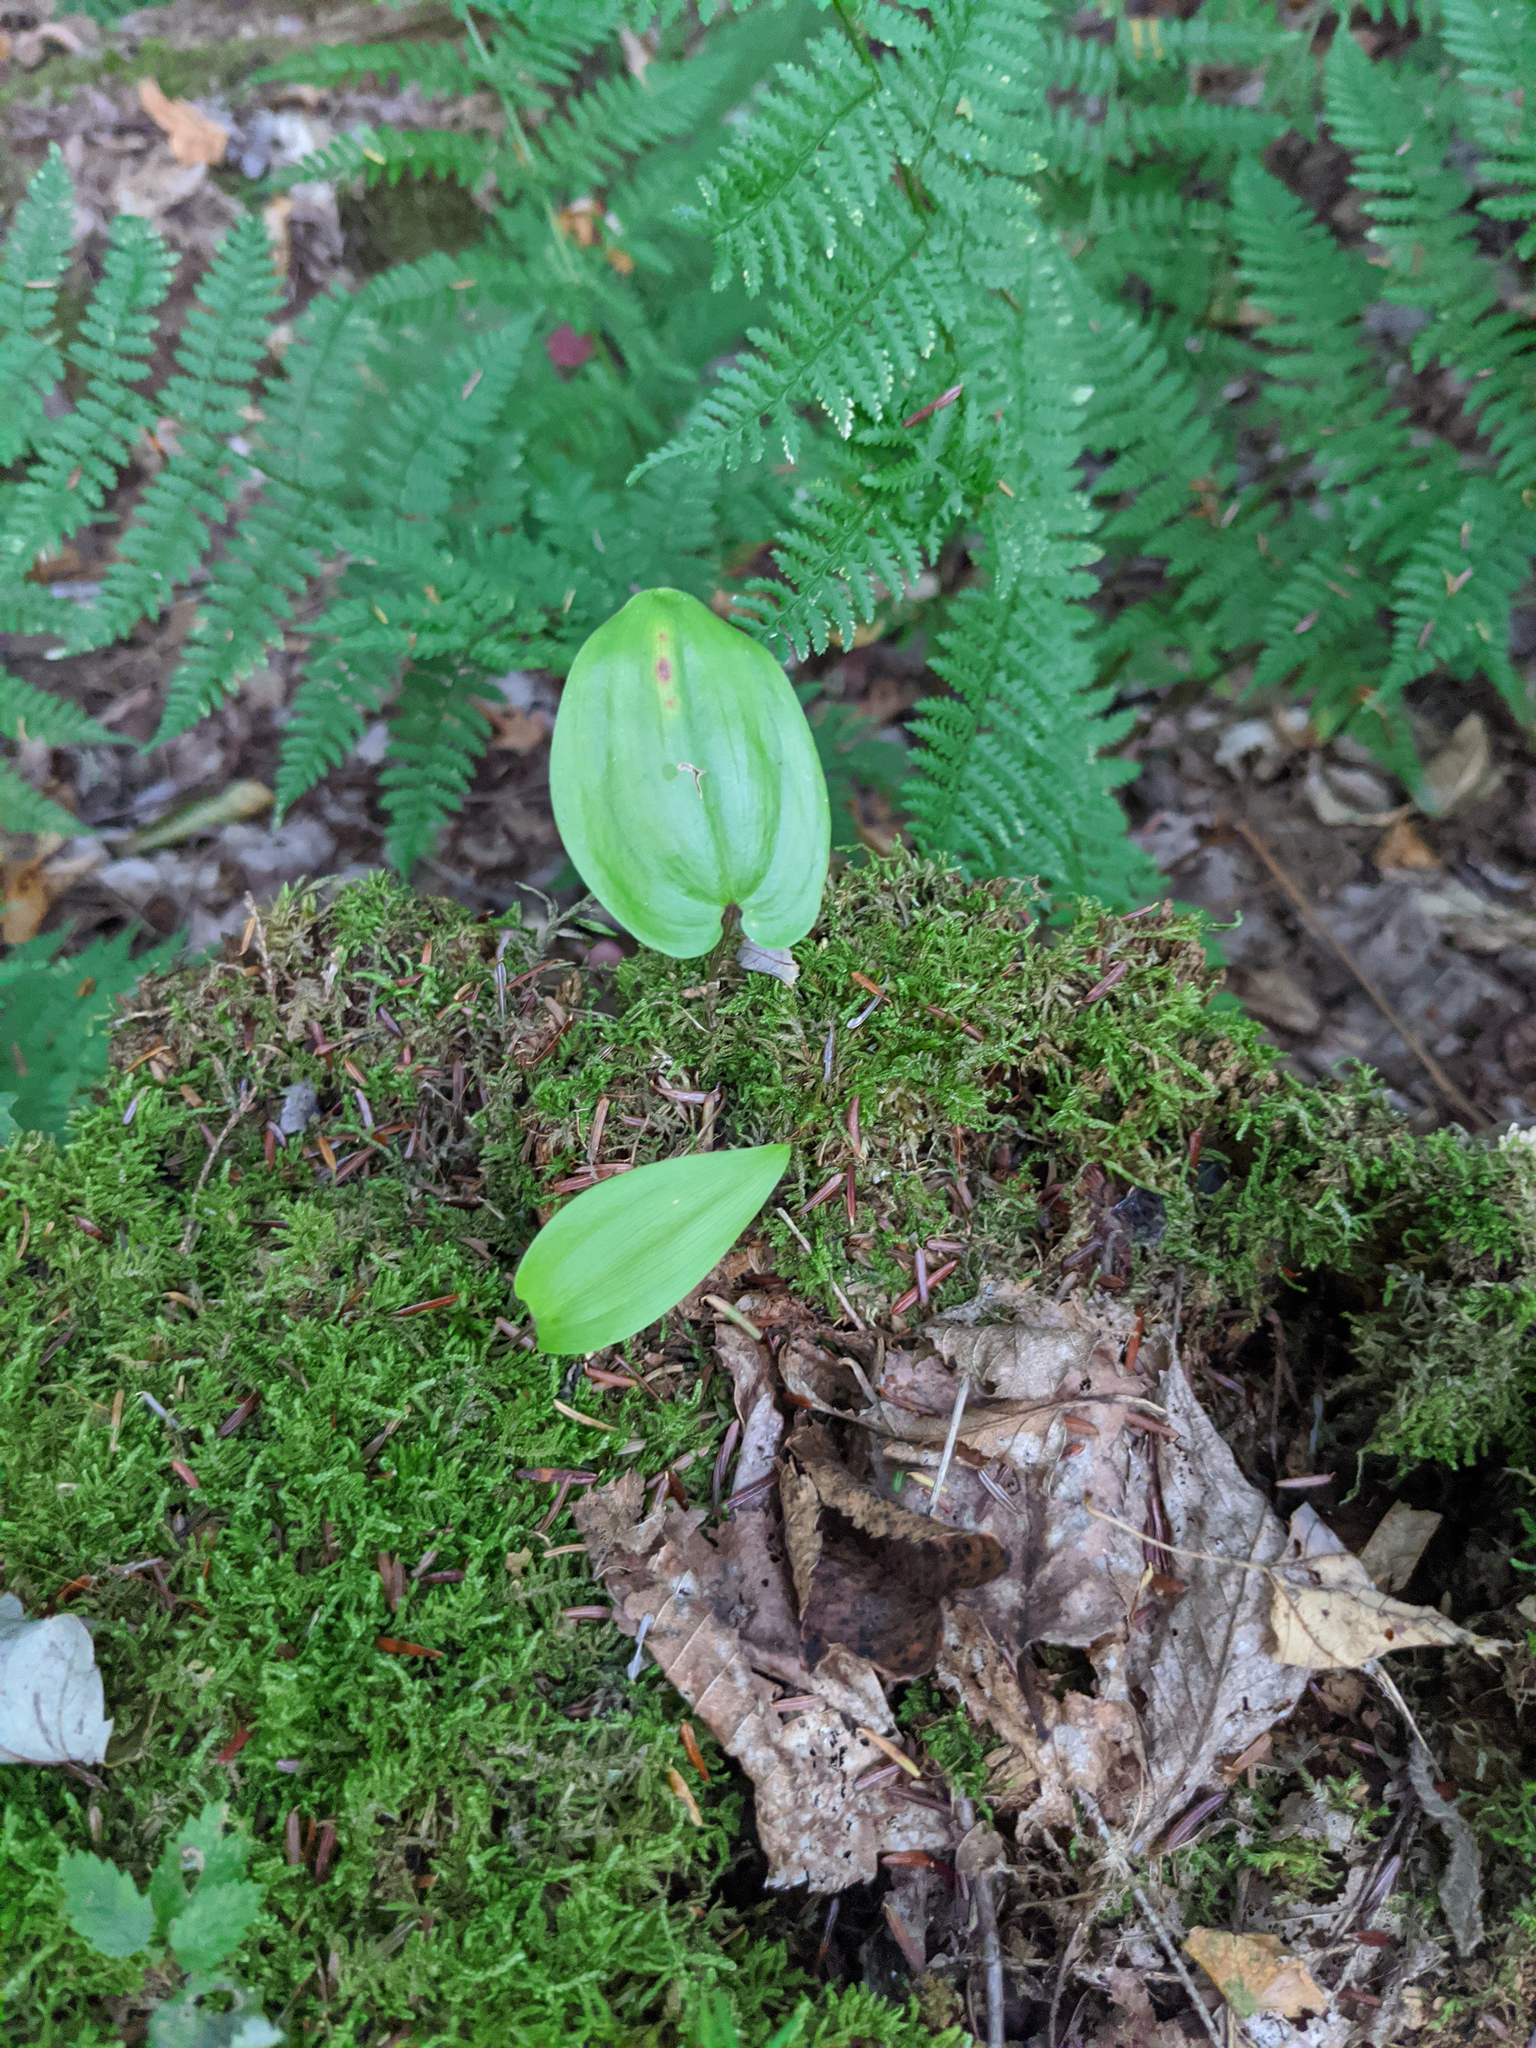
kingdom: Plantae
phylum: Tracheophyta
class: Liliopsida
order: Asparagales
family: Asparagaceae
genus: Maianthemum
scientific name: Maianthemum canadense
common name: False lily-of-the-valley
